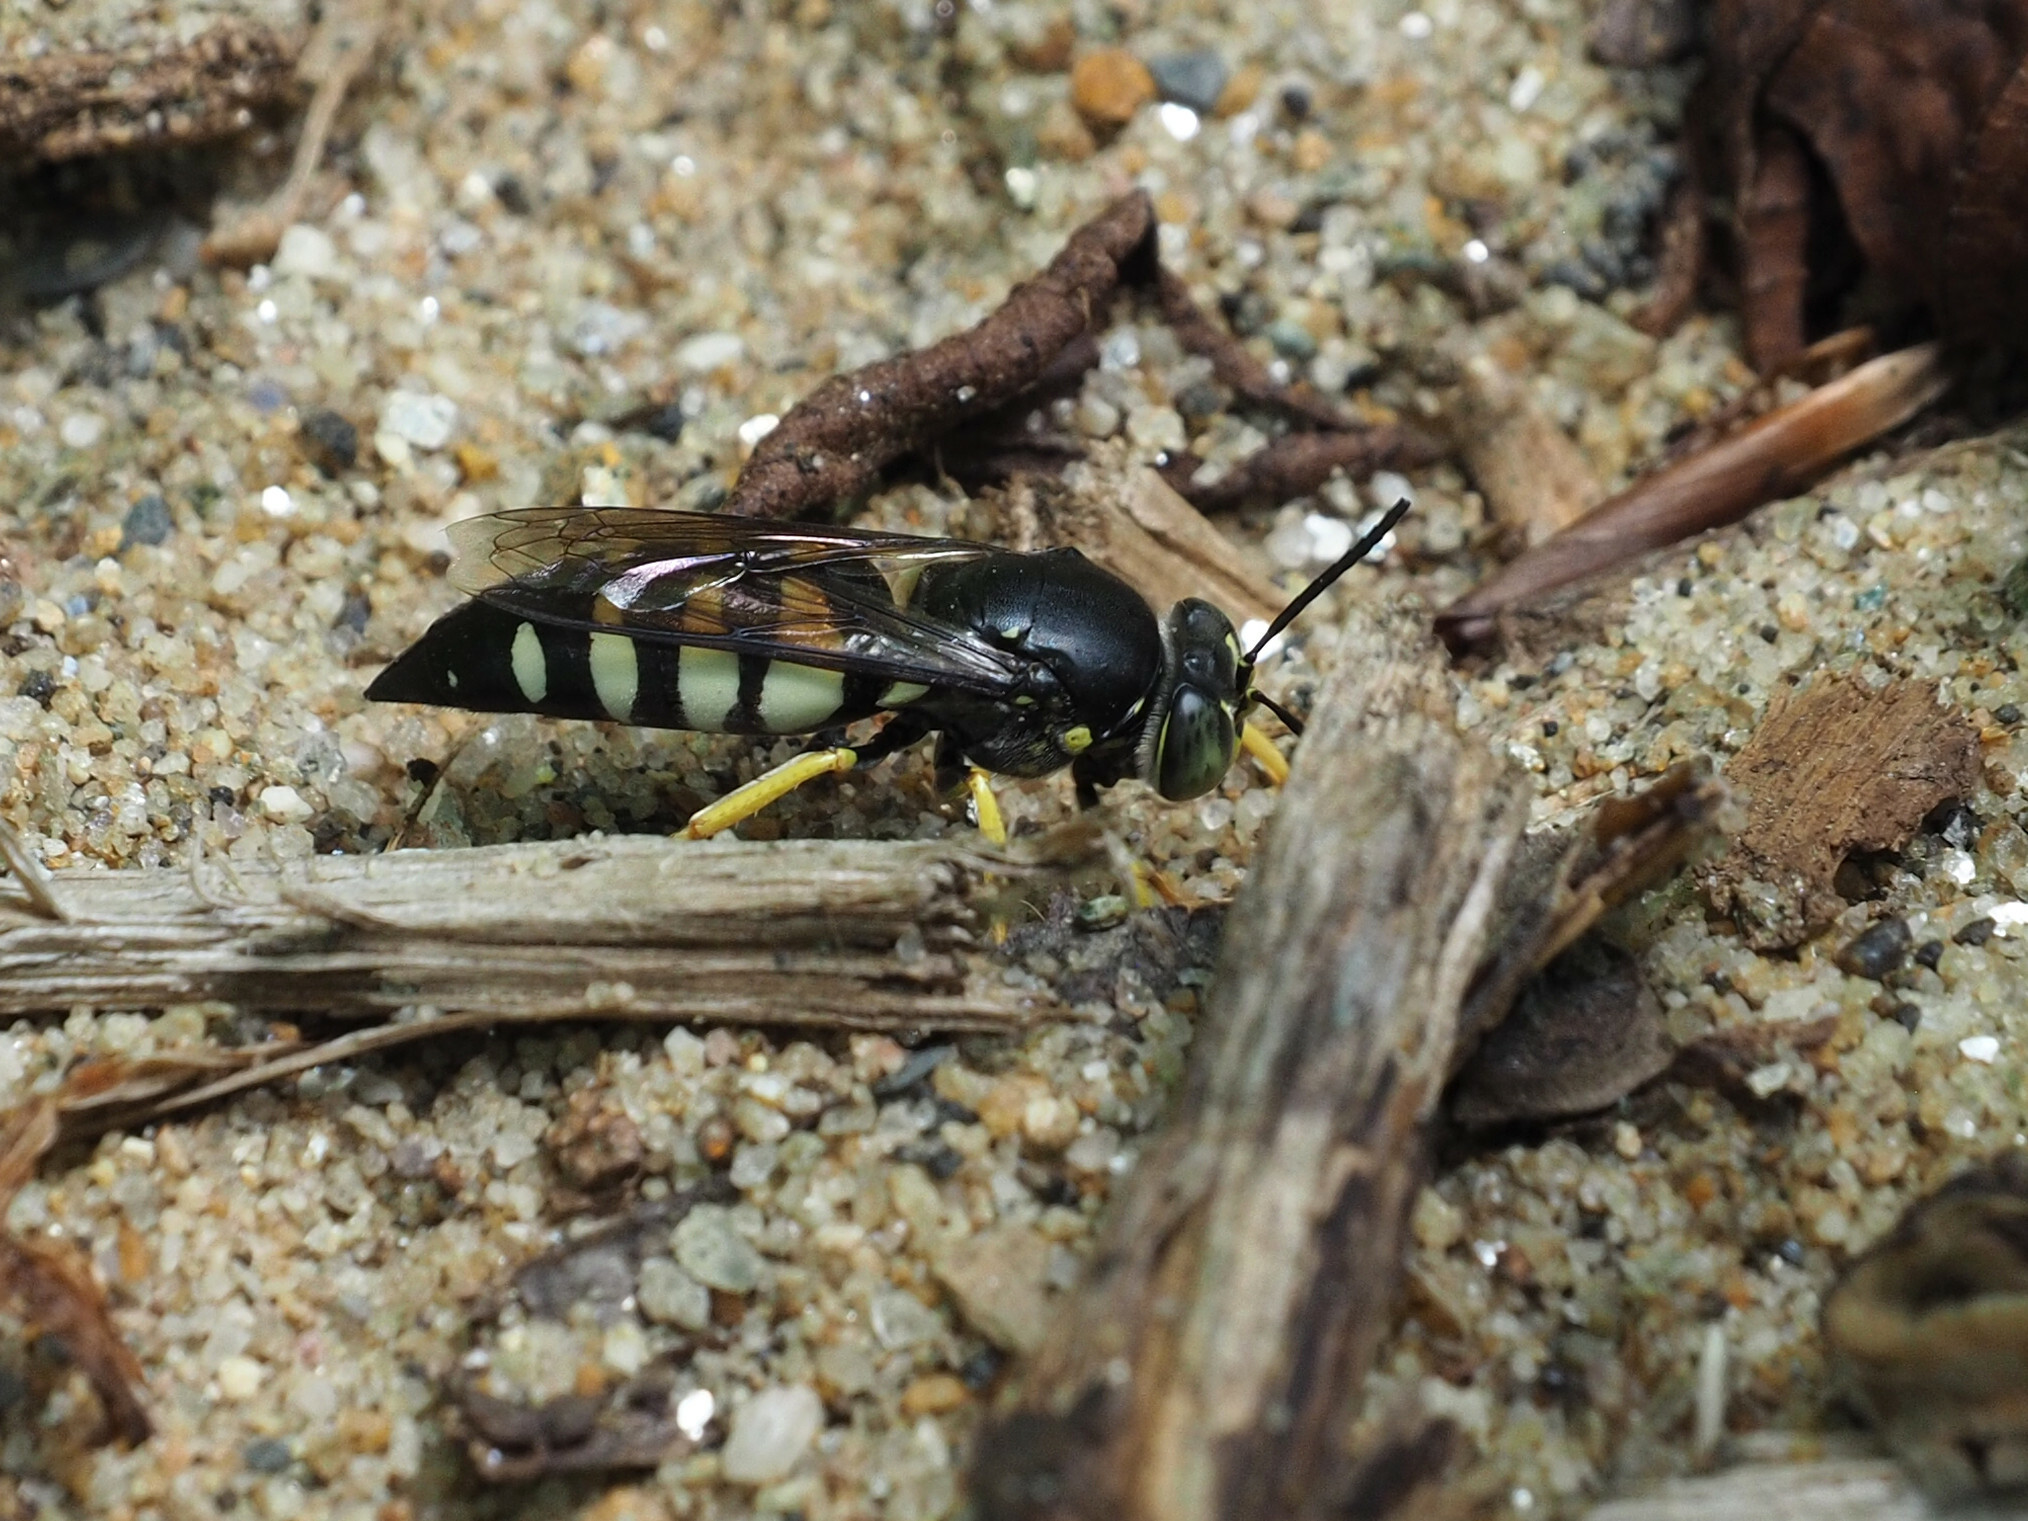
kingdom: Animalia
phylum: Arthropoda
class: Insecta
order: Hymenoptera
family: Crabronidae
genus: Bicyrtes
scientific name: Bicyrtes quadrifasciatus
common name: Four-banded stink bug hunter wasp
